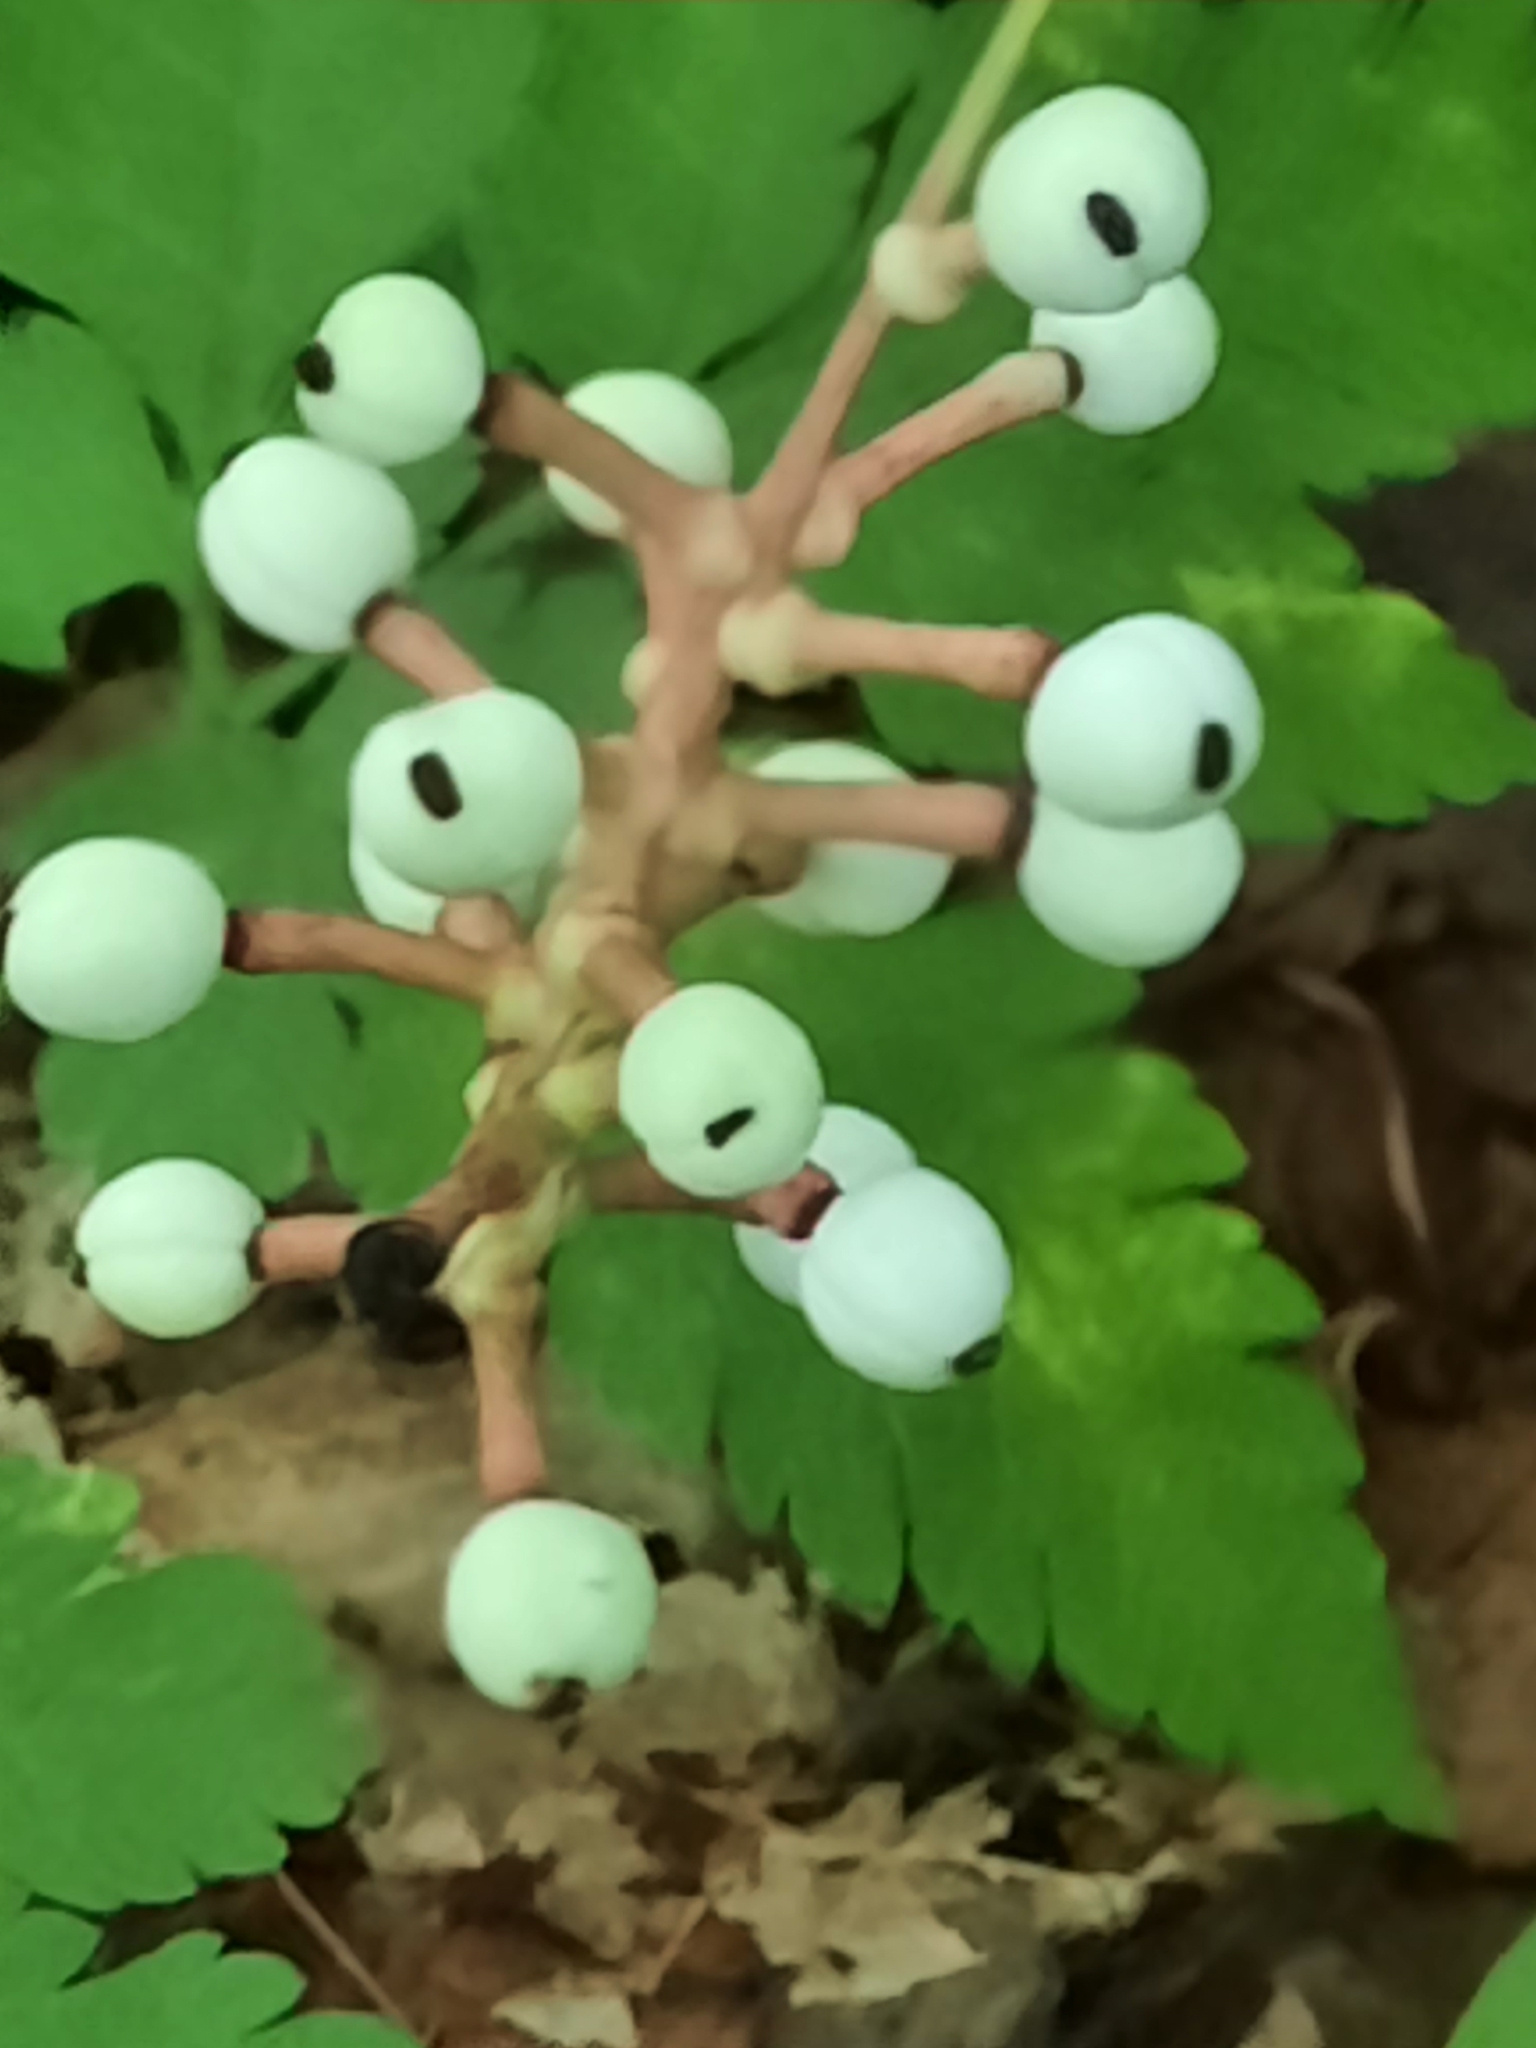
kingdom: Plantae
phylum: Tracheophyta
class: Magnoliopsida
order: Ranunculales
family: Ranunculaceae
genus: Actaea
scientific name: Actaea pachypoda
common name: Doll's-eyes
